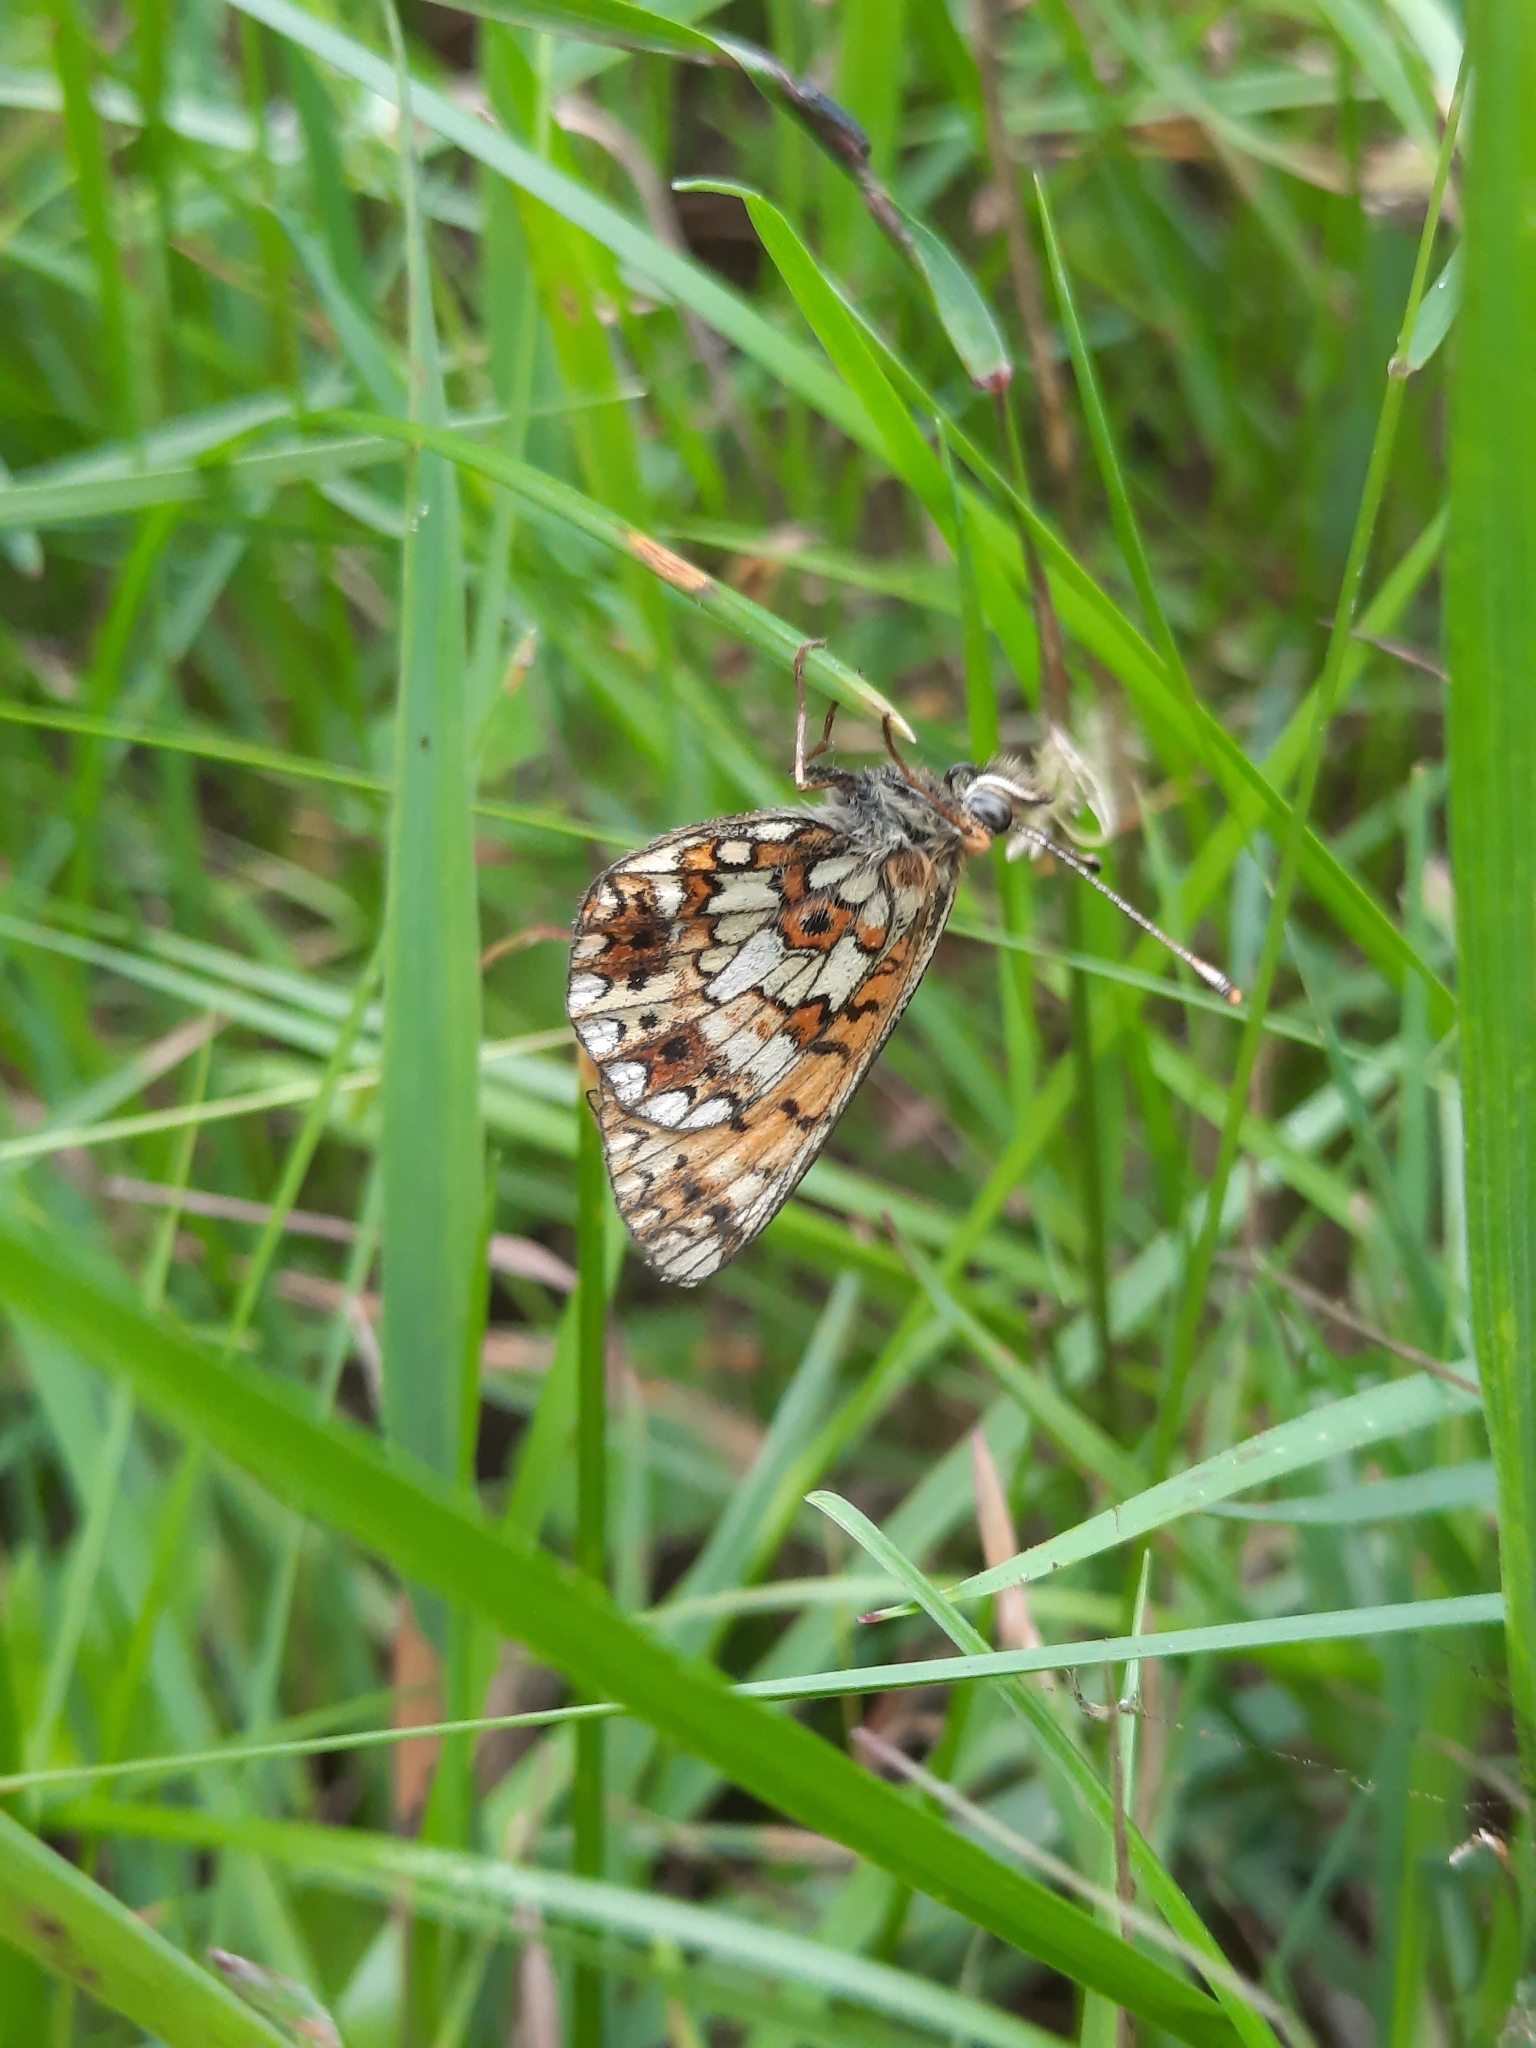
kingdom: Animalia
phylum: Arthropoda
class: Insecta
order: Lepidoptera
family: Nymphalidae
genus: Boloria
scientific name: Boloria selene
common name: Small pearl-bordered fritillary
